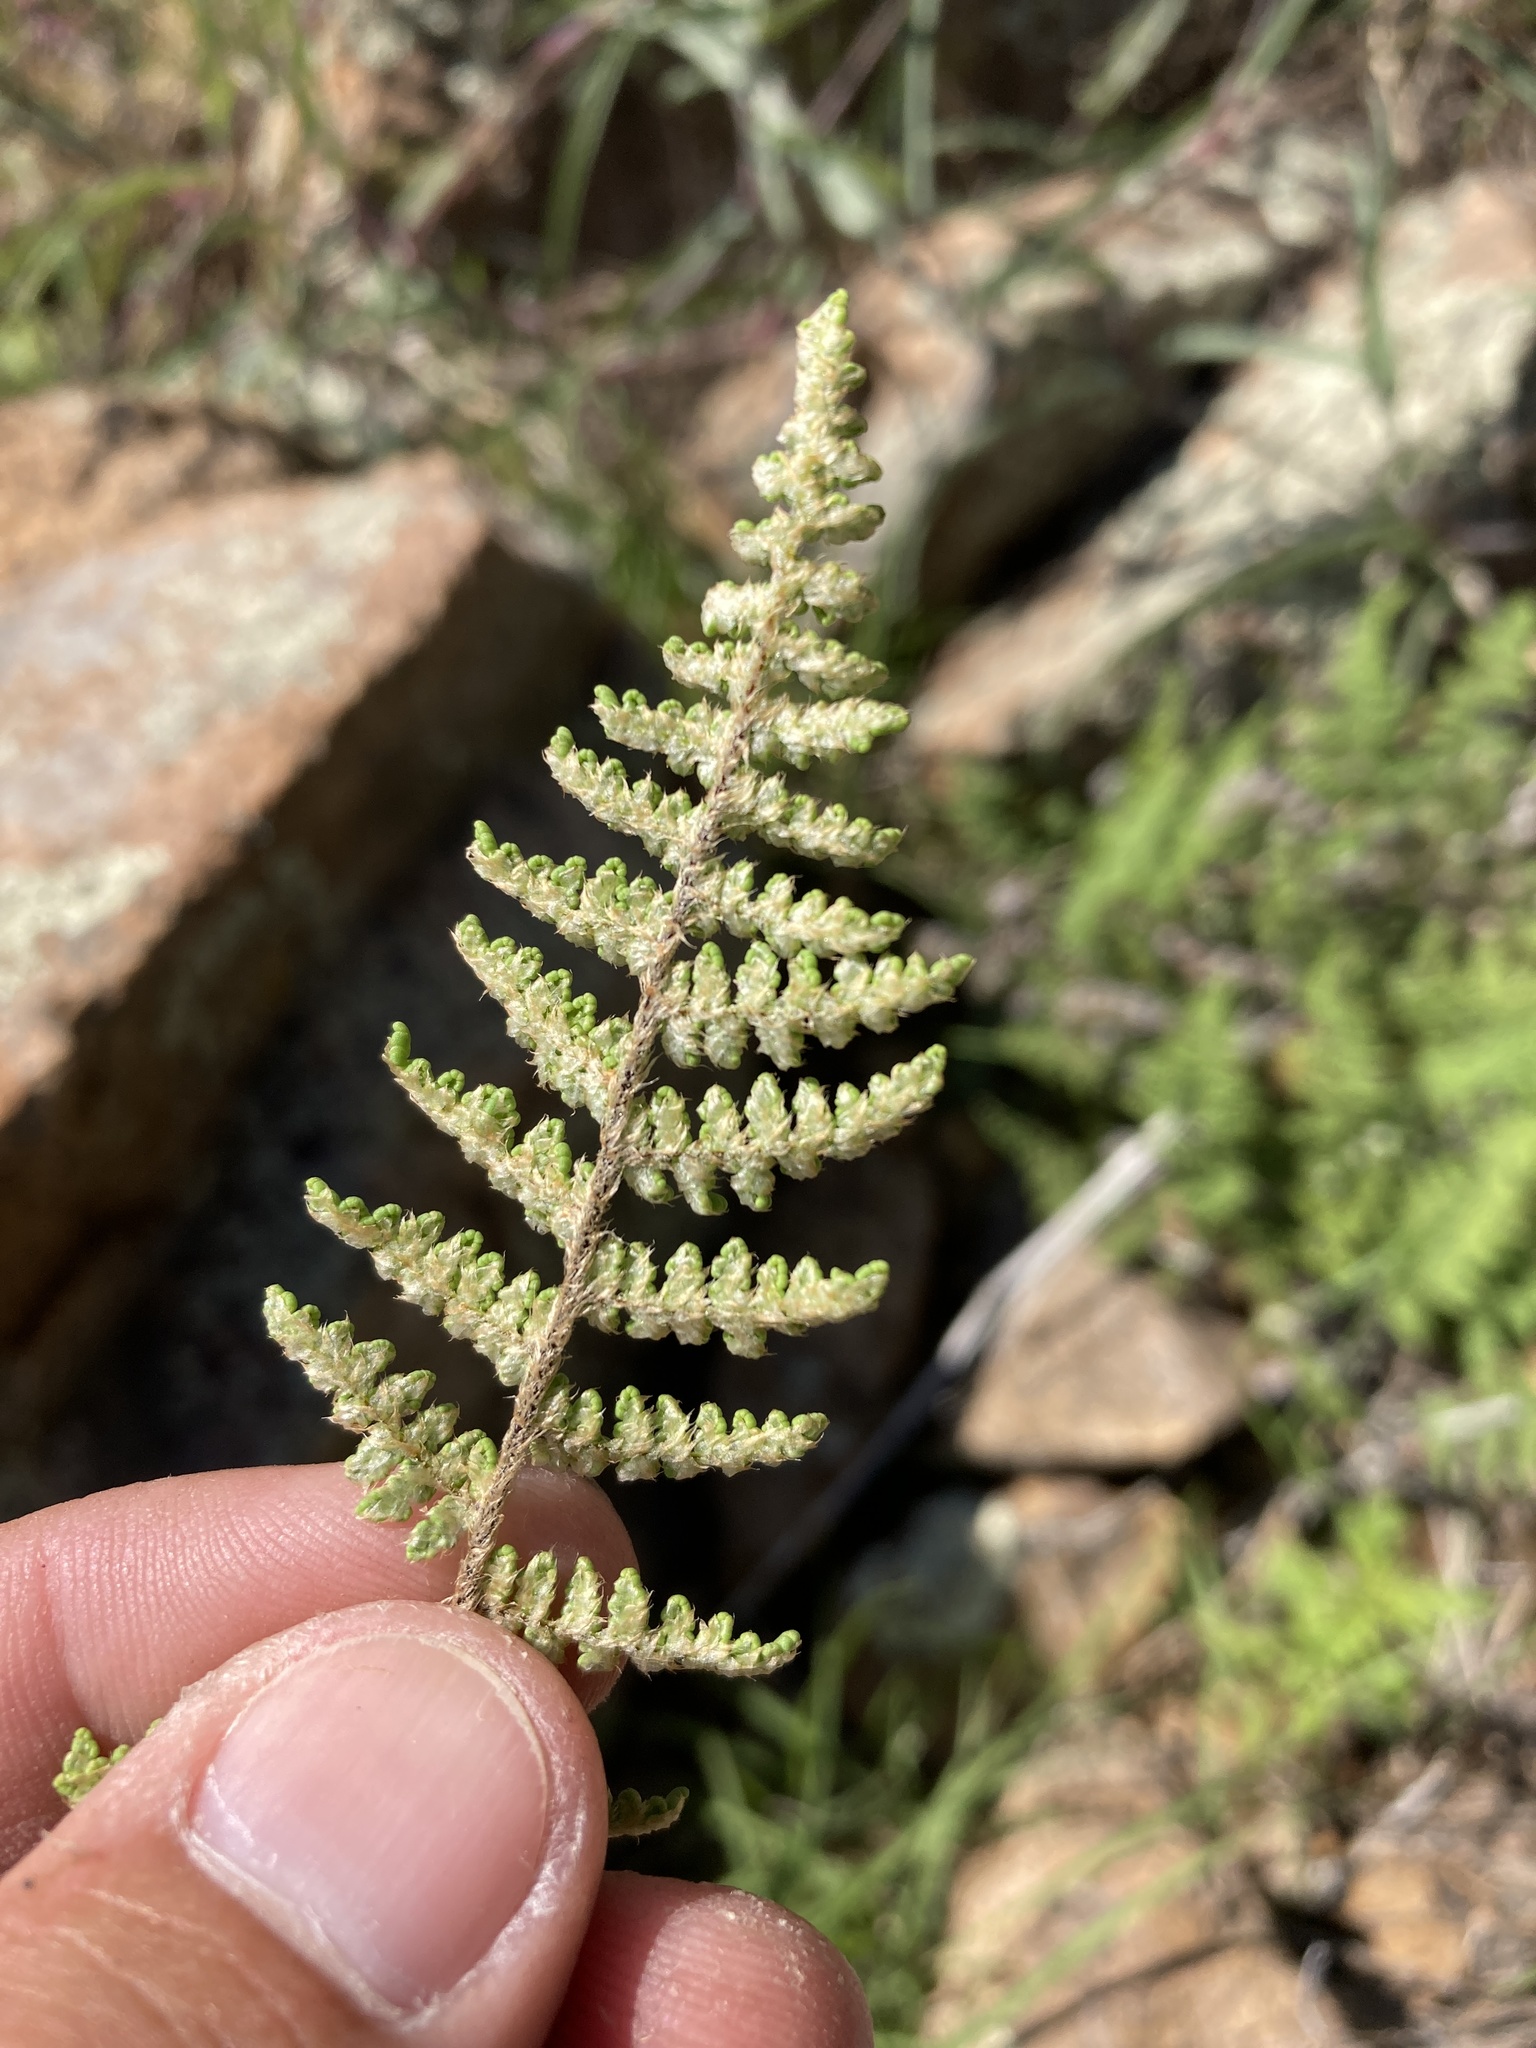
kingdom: Plantae
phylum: Tracheophyta
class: Polypodiopsida
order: Polypodiales
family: Pteridaceae
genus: Myriopteris
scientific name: Myriopteris fendleri
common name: Fendler's lip fern
